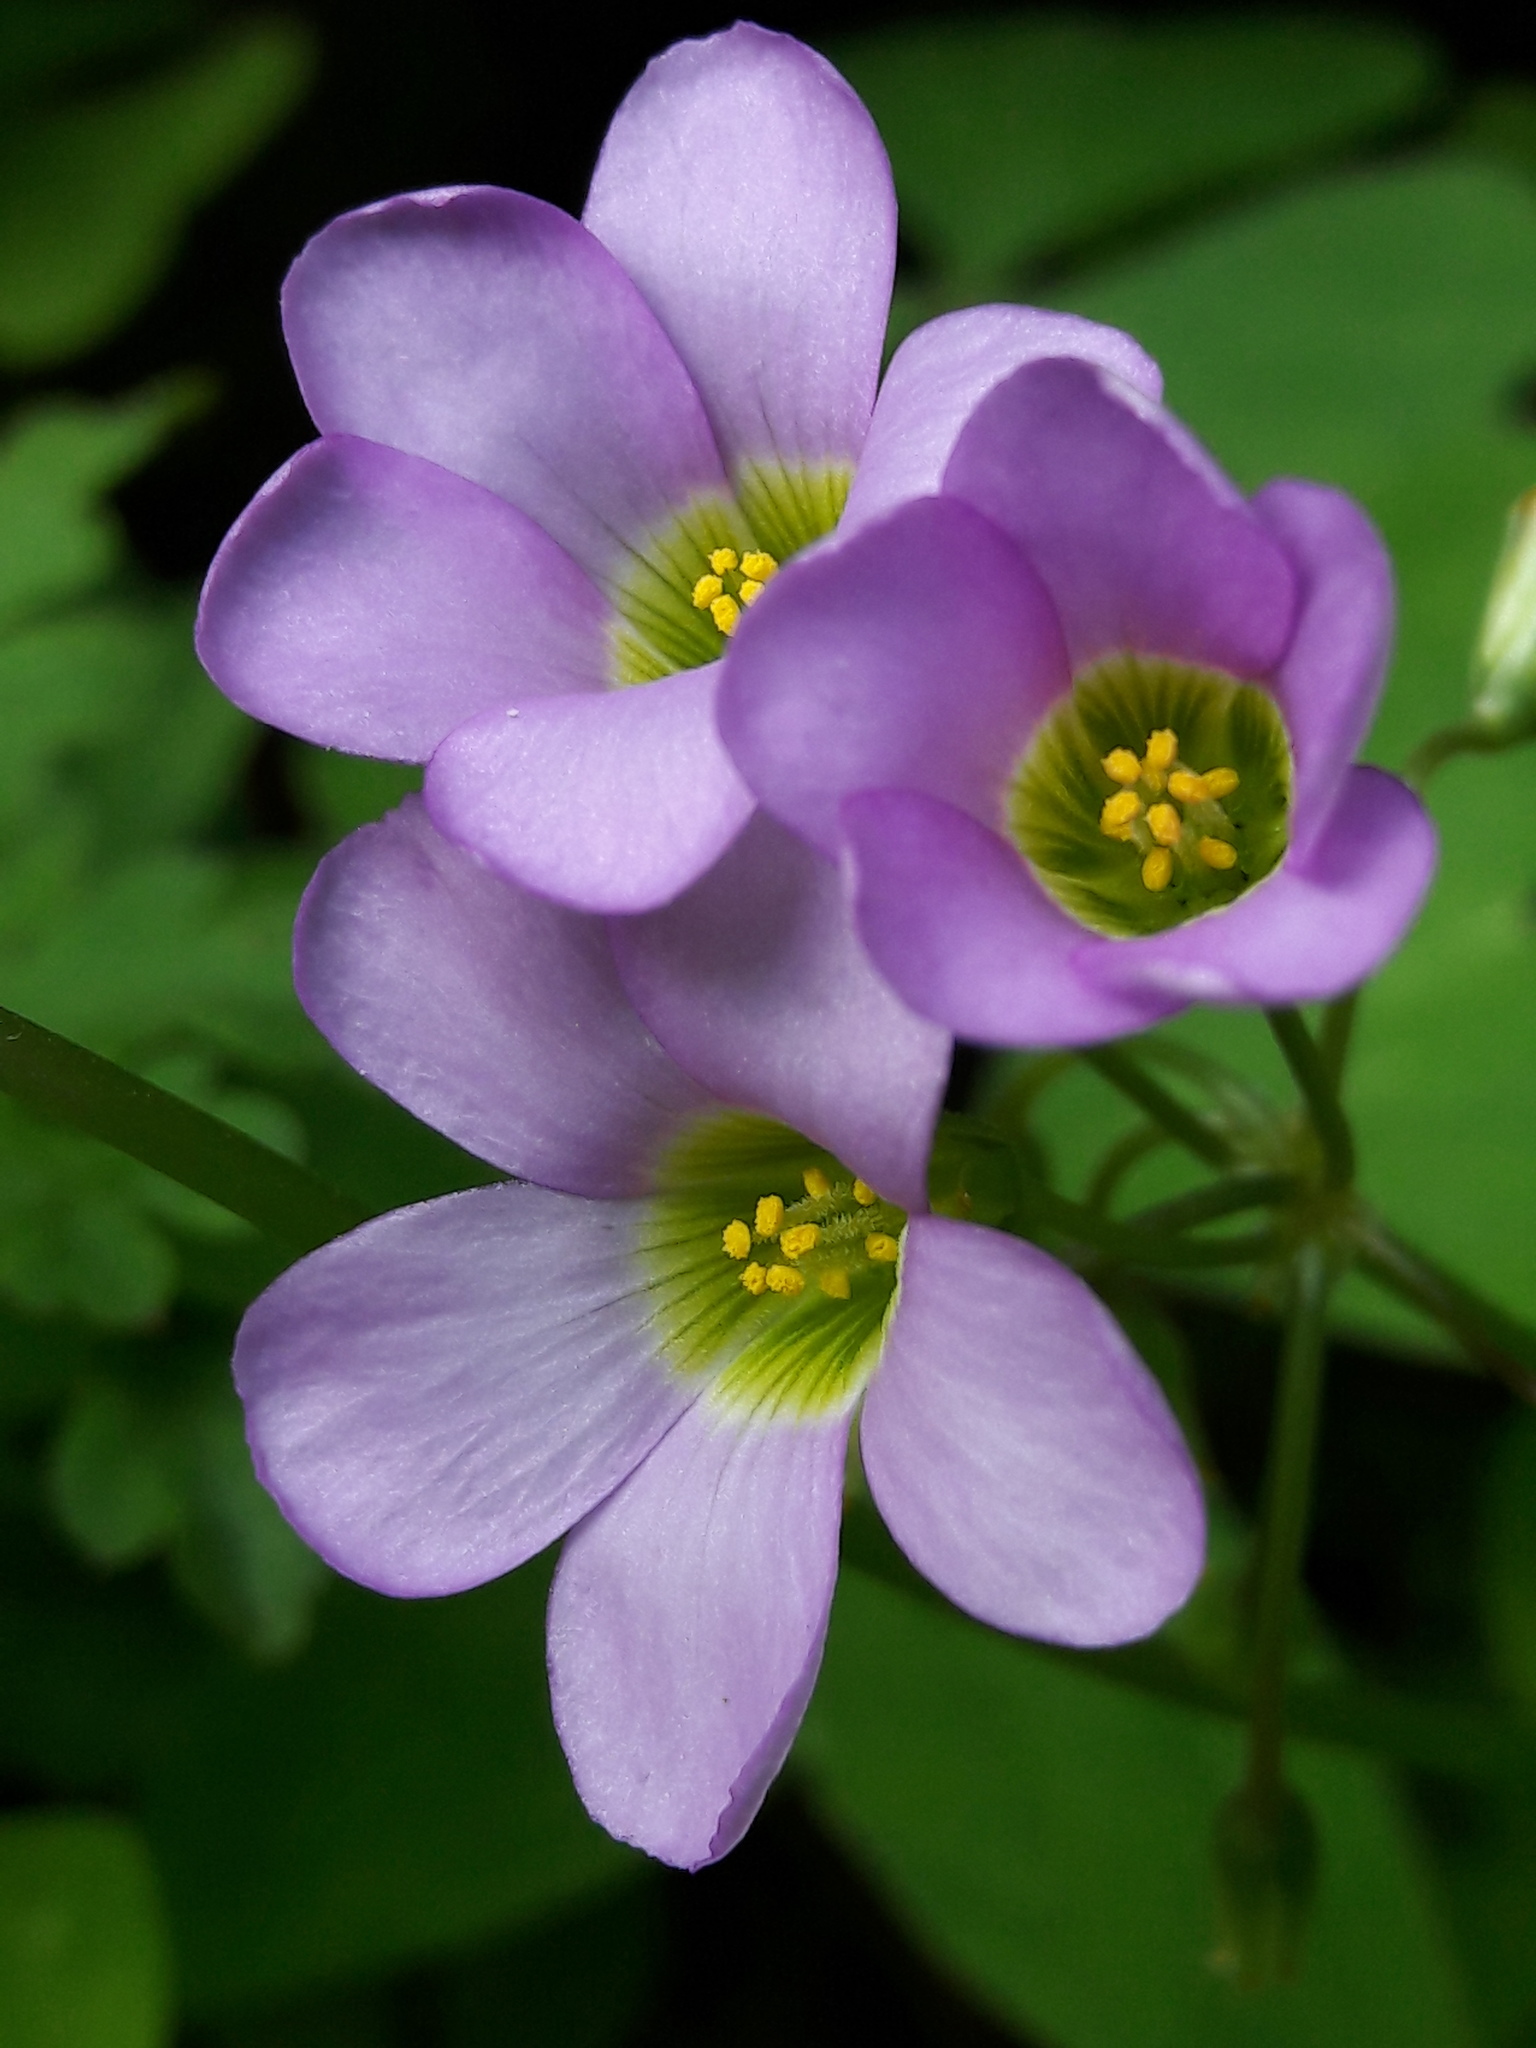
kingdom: Plantae
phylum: Tracheophyta
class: Magnoliopsida
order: Oxalidales
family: Oxalidaceae
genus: Oxalis
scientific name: Oxalis latifolia
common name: Garden pink-sorrel
